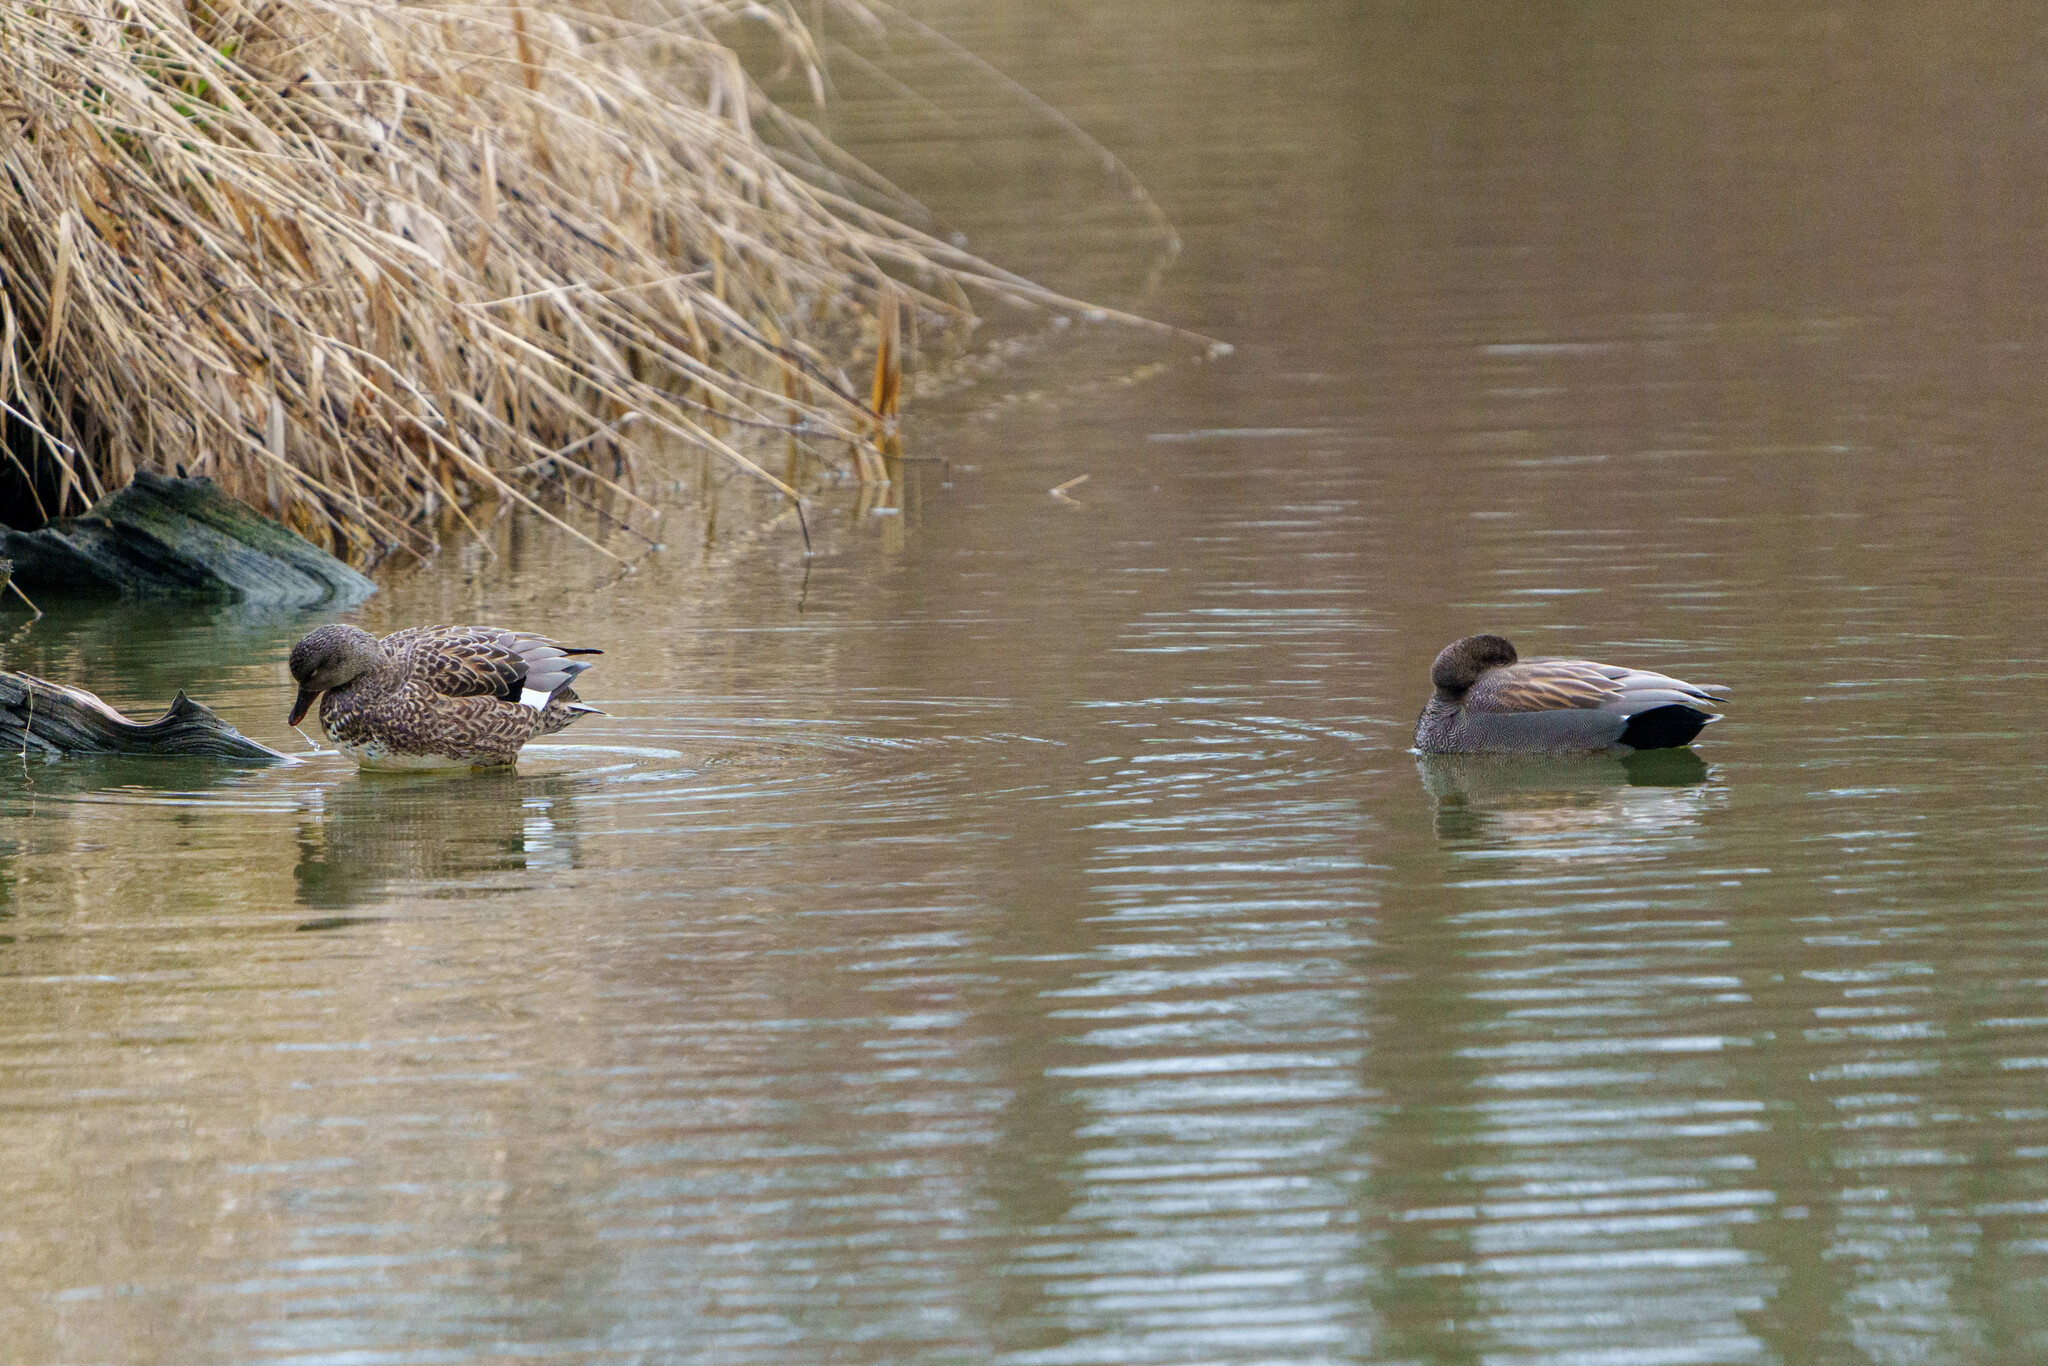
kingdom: Animalia
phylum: Chordata
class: Aves
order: Anseriformes
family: Anatidae
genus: Mareca
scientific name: Mareca strepera
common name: Gadwall
